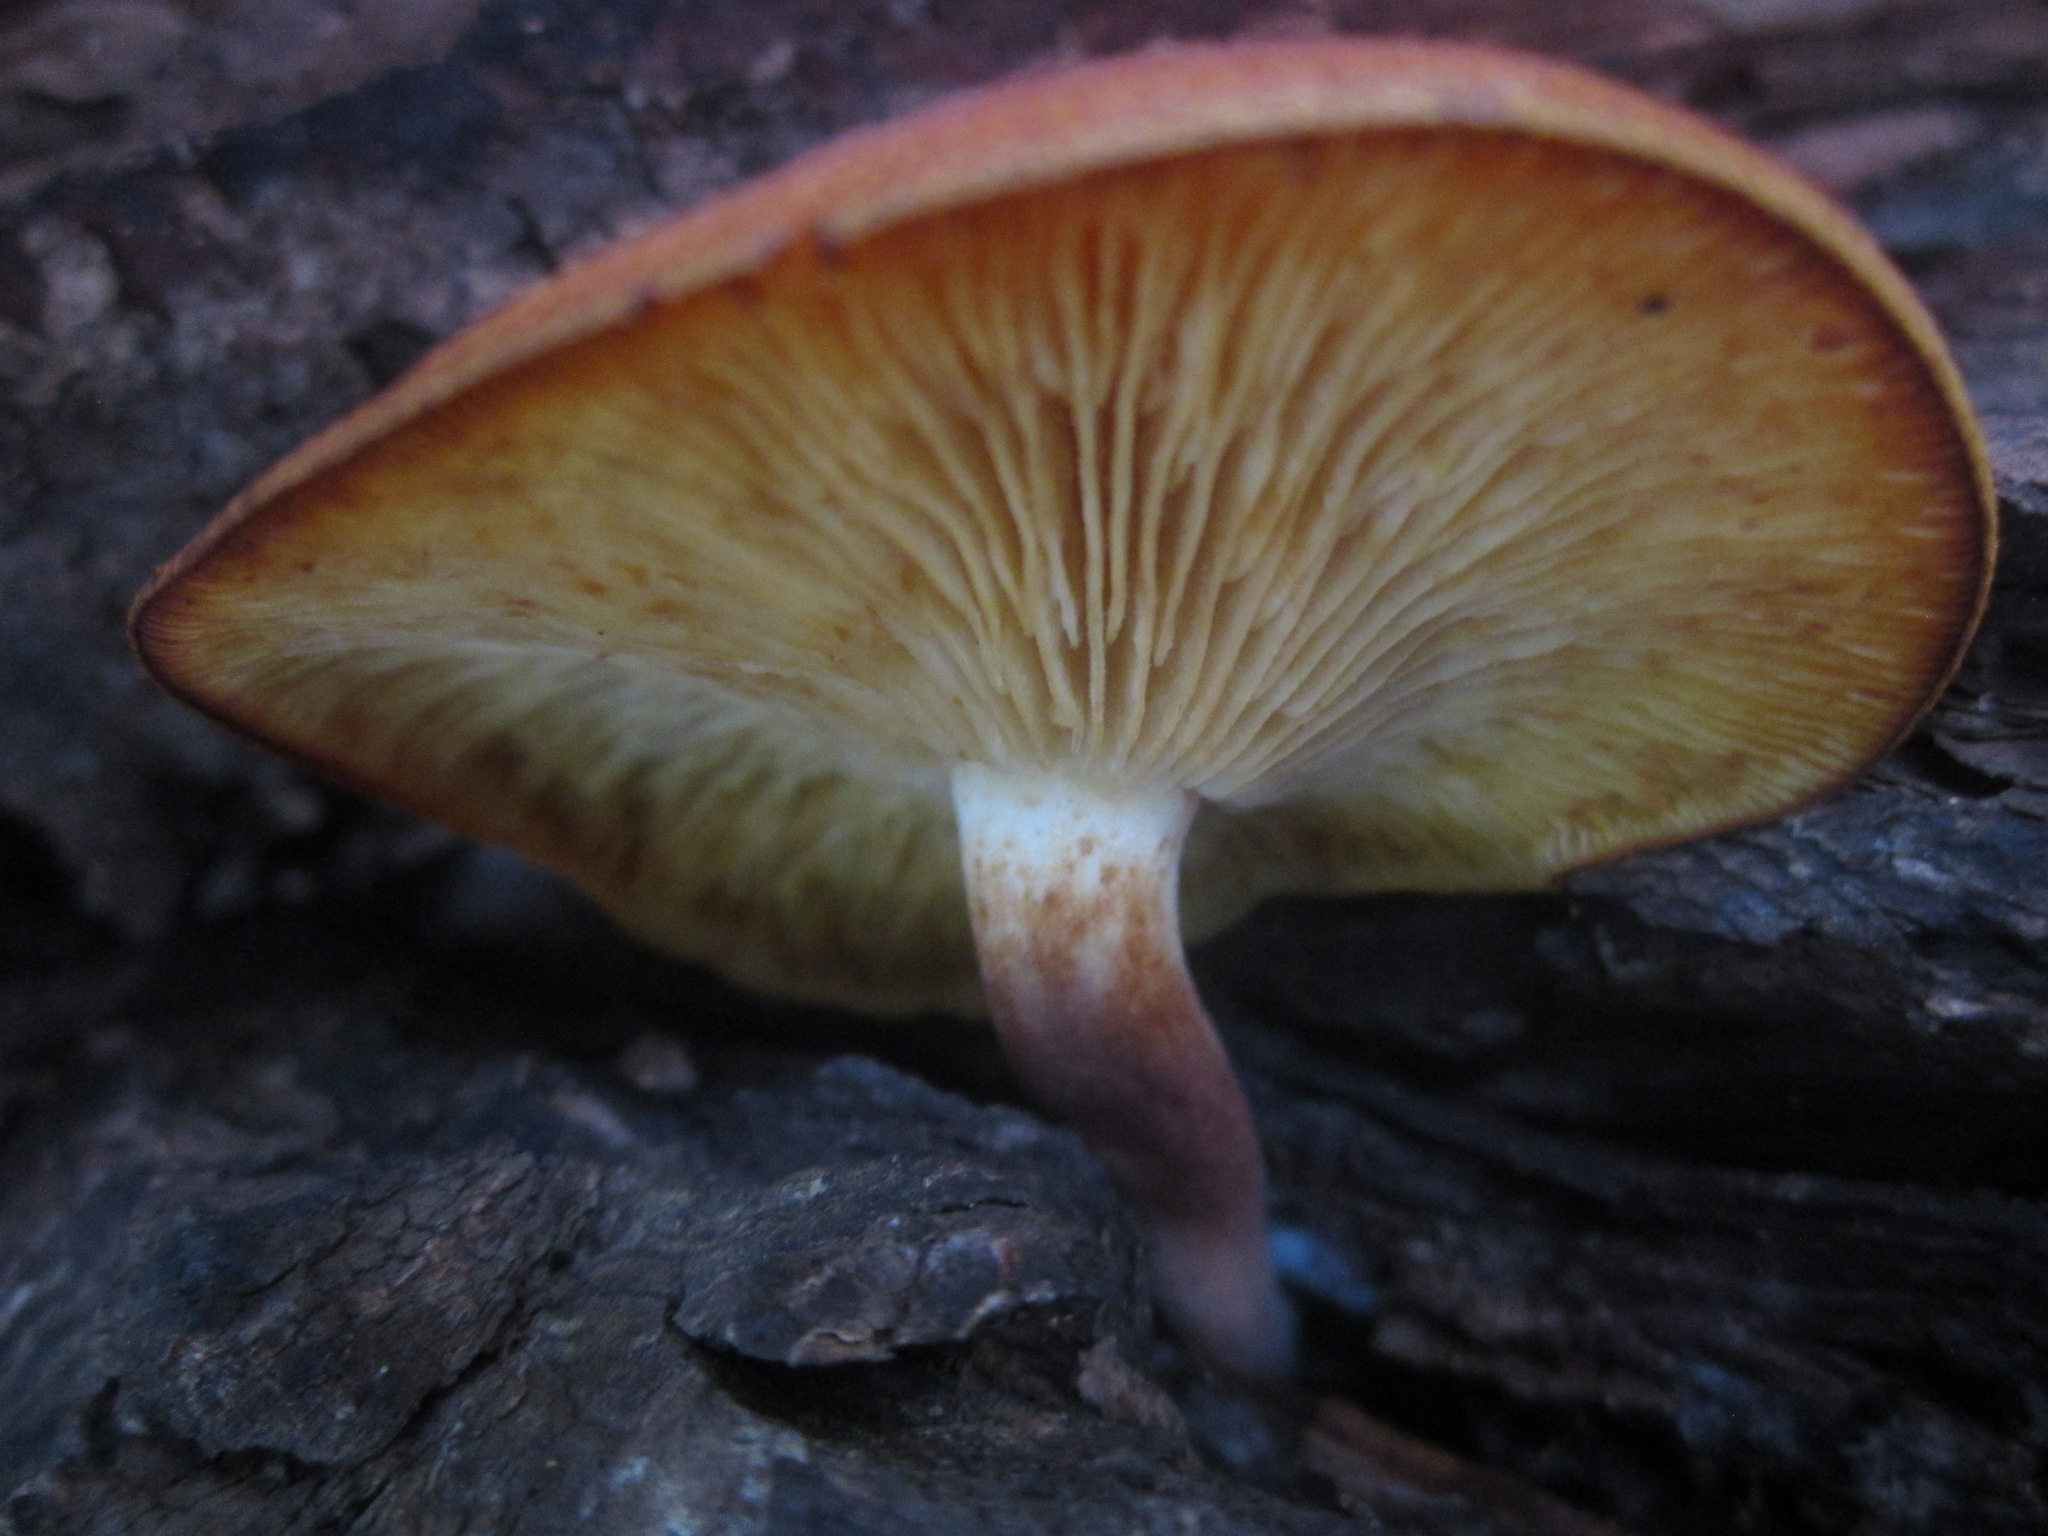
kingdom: Fungi
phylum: Basidiomycota
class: Agaricomycetes
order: Agaricales
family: Tricholomataceae
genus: Tricholomopsis
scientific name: Tricholomopsis rutilans
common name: Plums and custard
